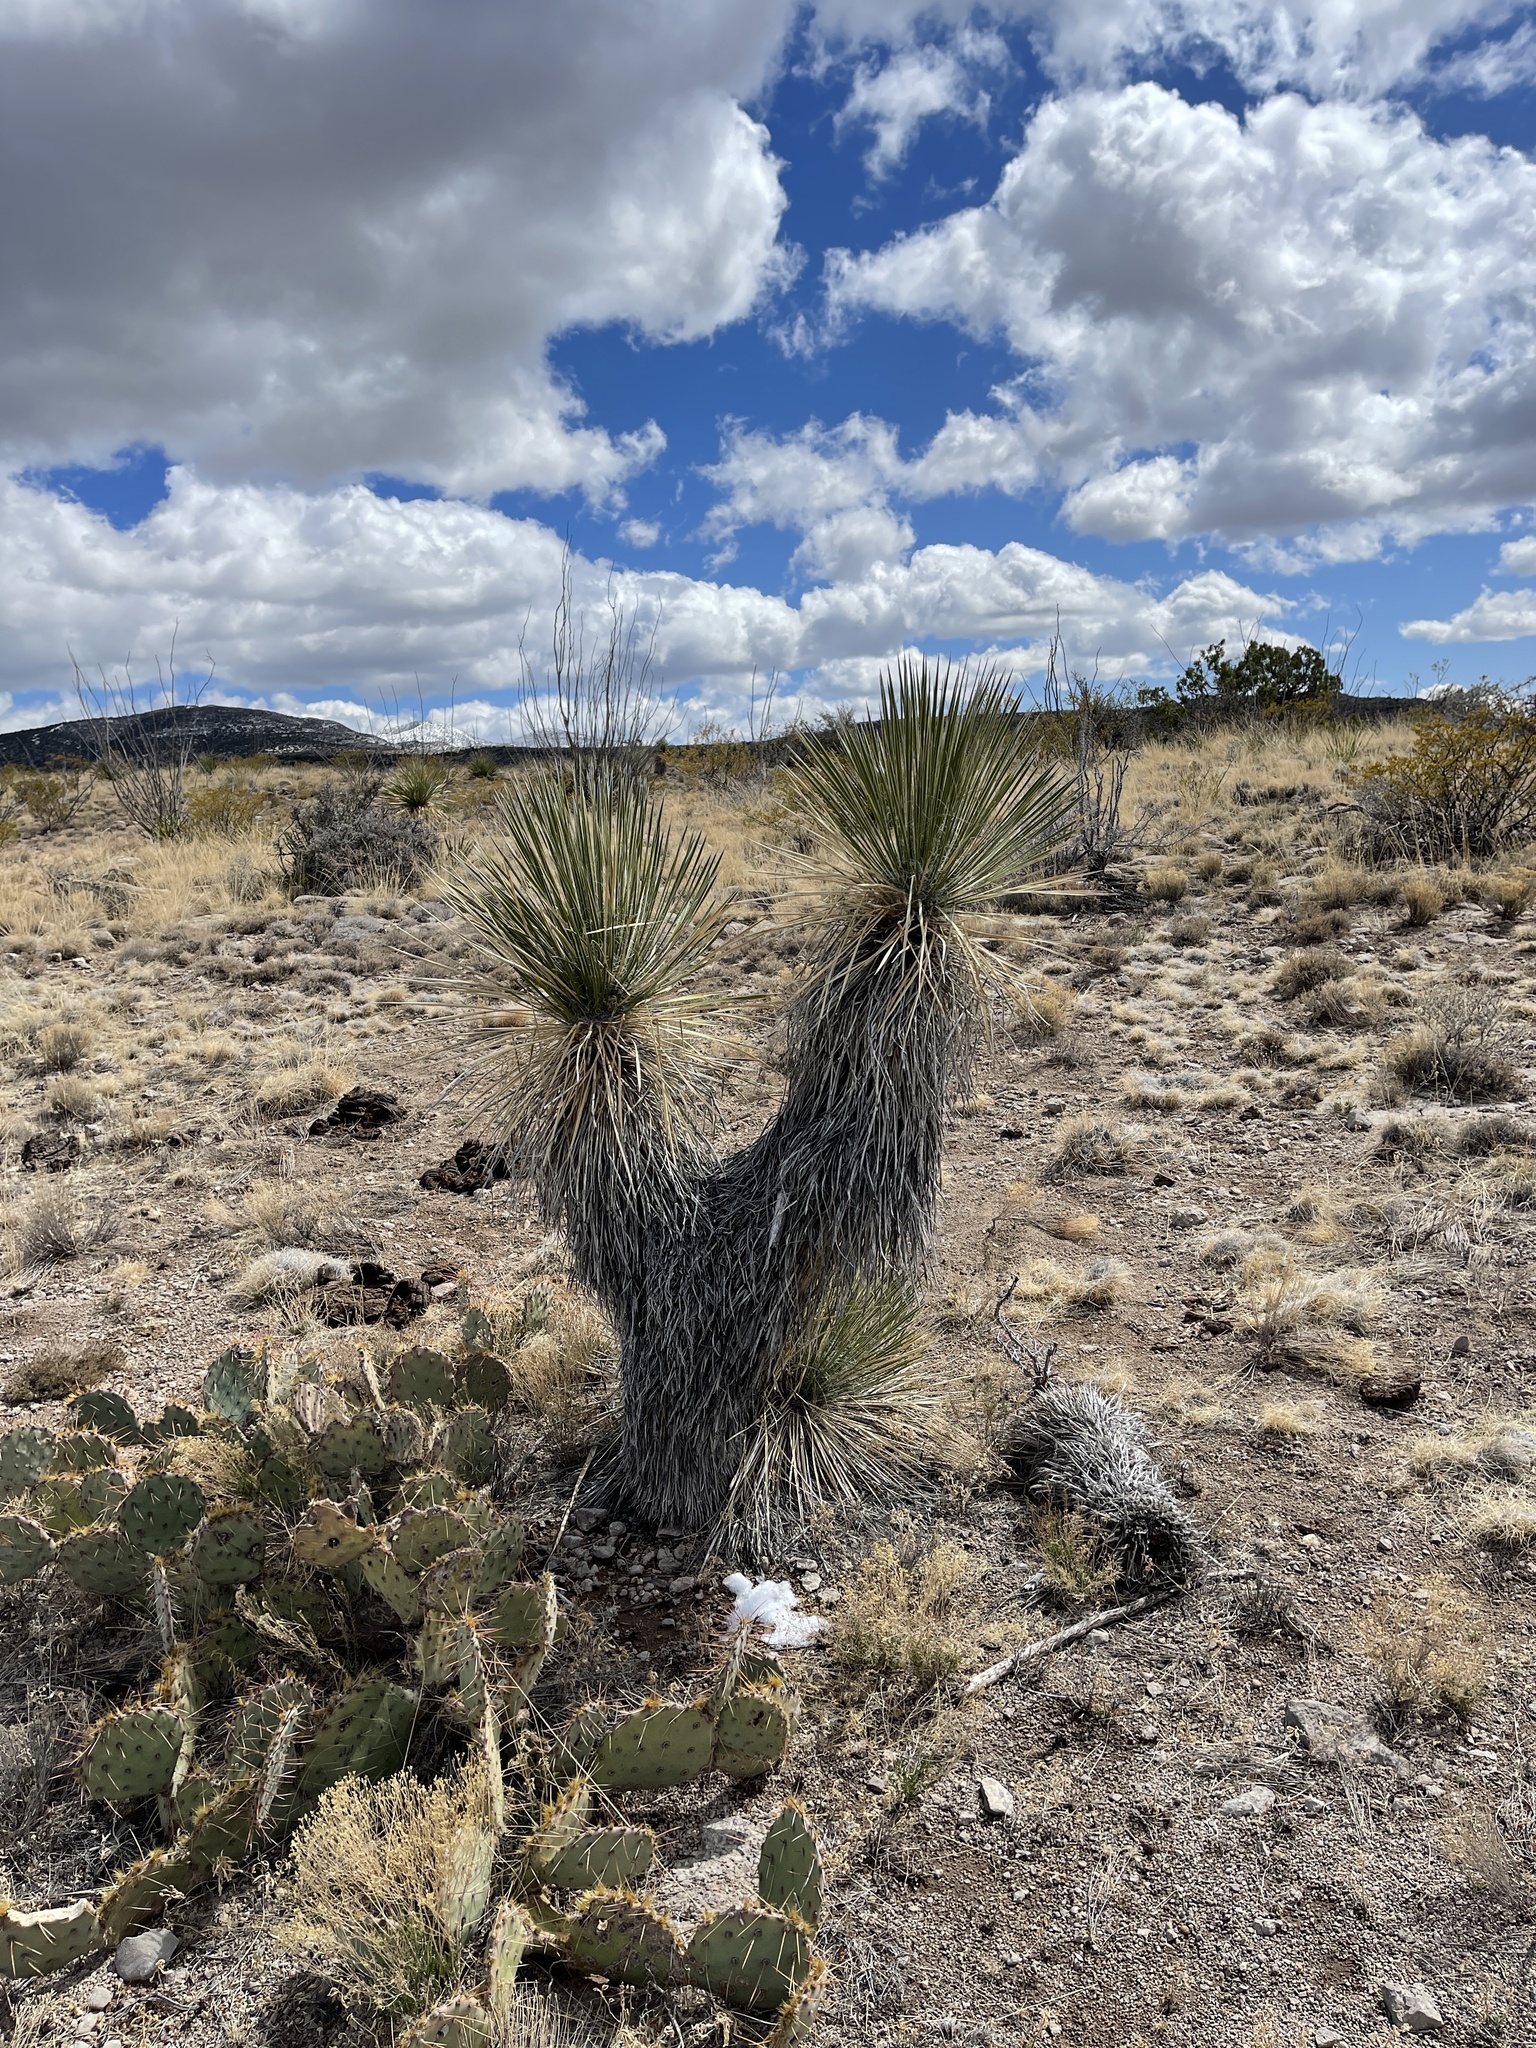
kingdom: Plantae
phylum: Tracheophyta
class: Liliopsida
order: Asparagales
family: Asparagaceae
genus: Yucca
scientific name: Yucca elata
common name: Palmella
